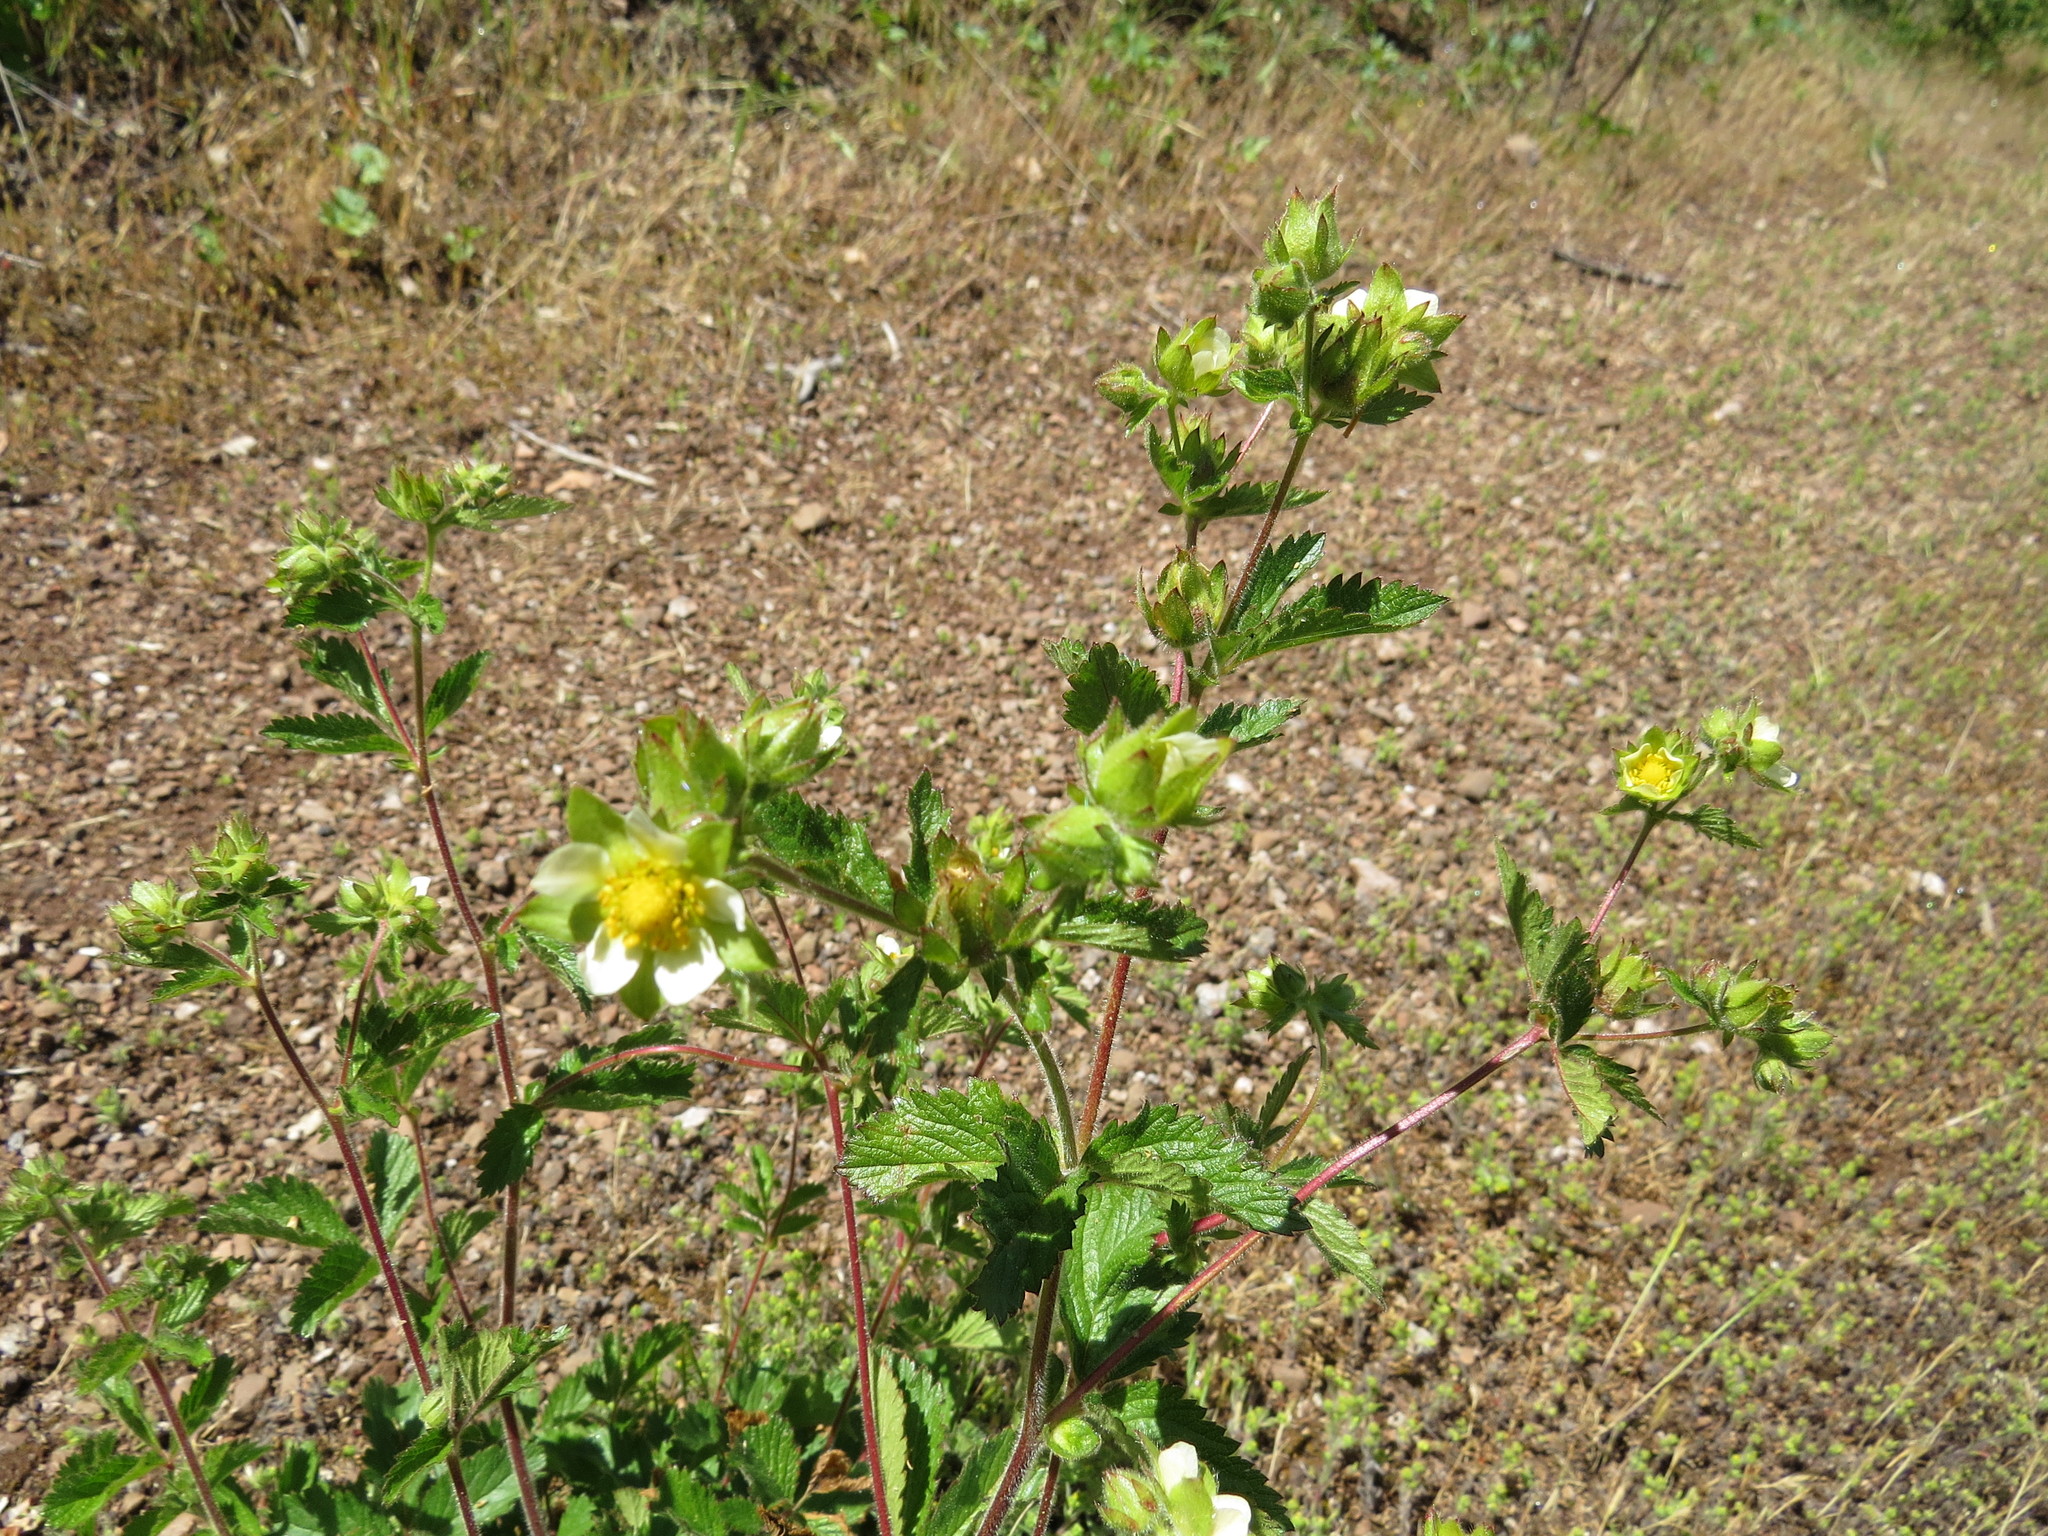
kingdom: Plantae
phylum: Tracheophyta
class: Magnoliopsida
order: Rosales
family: Rosaceae
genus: Drymocallis
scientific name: Drymocallis glandulosa
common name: Sticky cinquefoil
